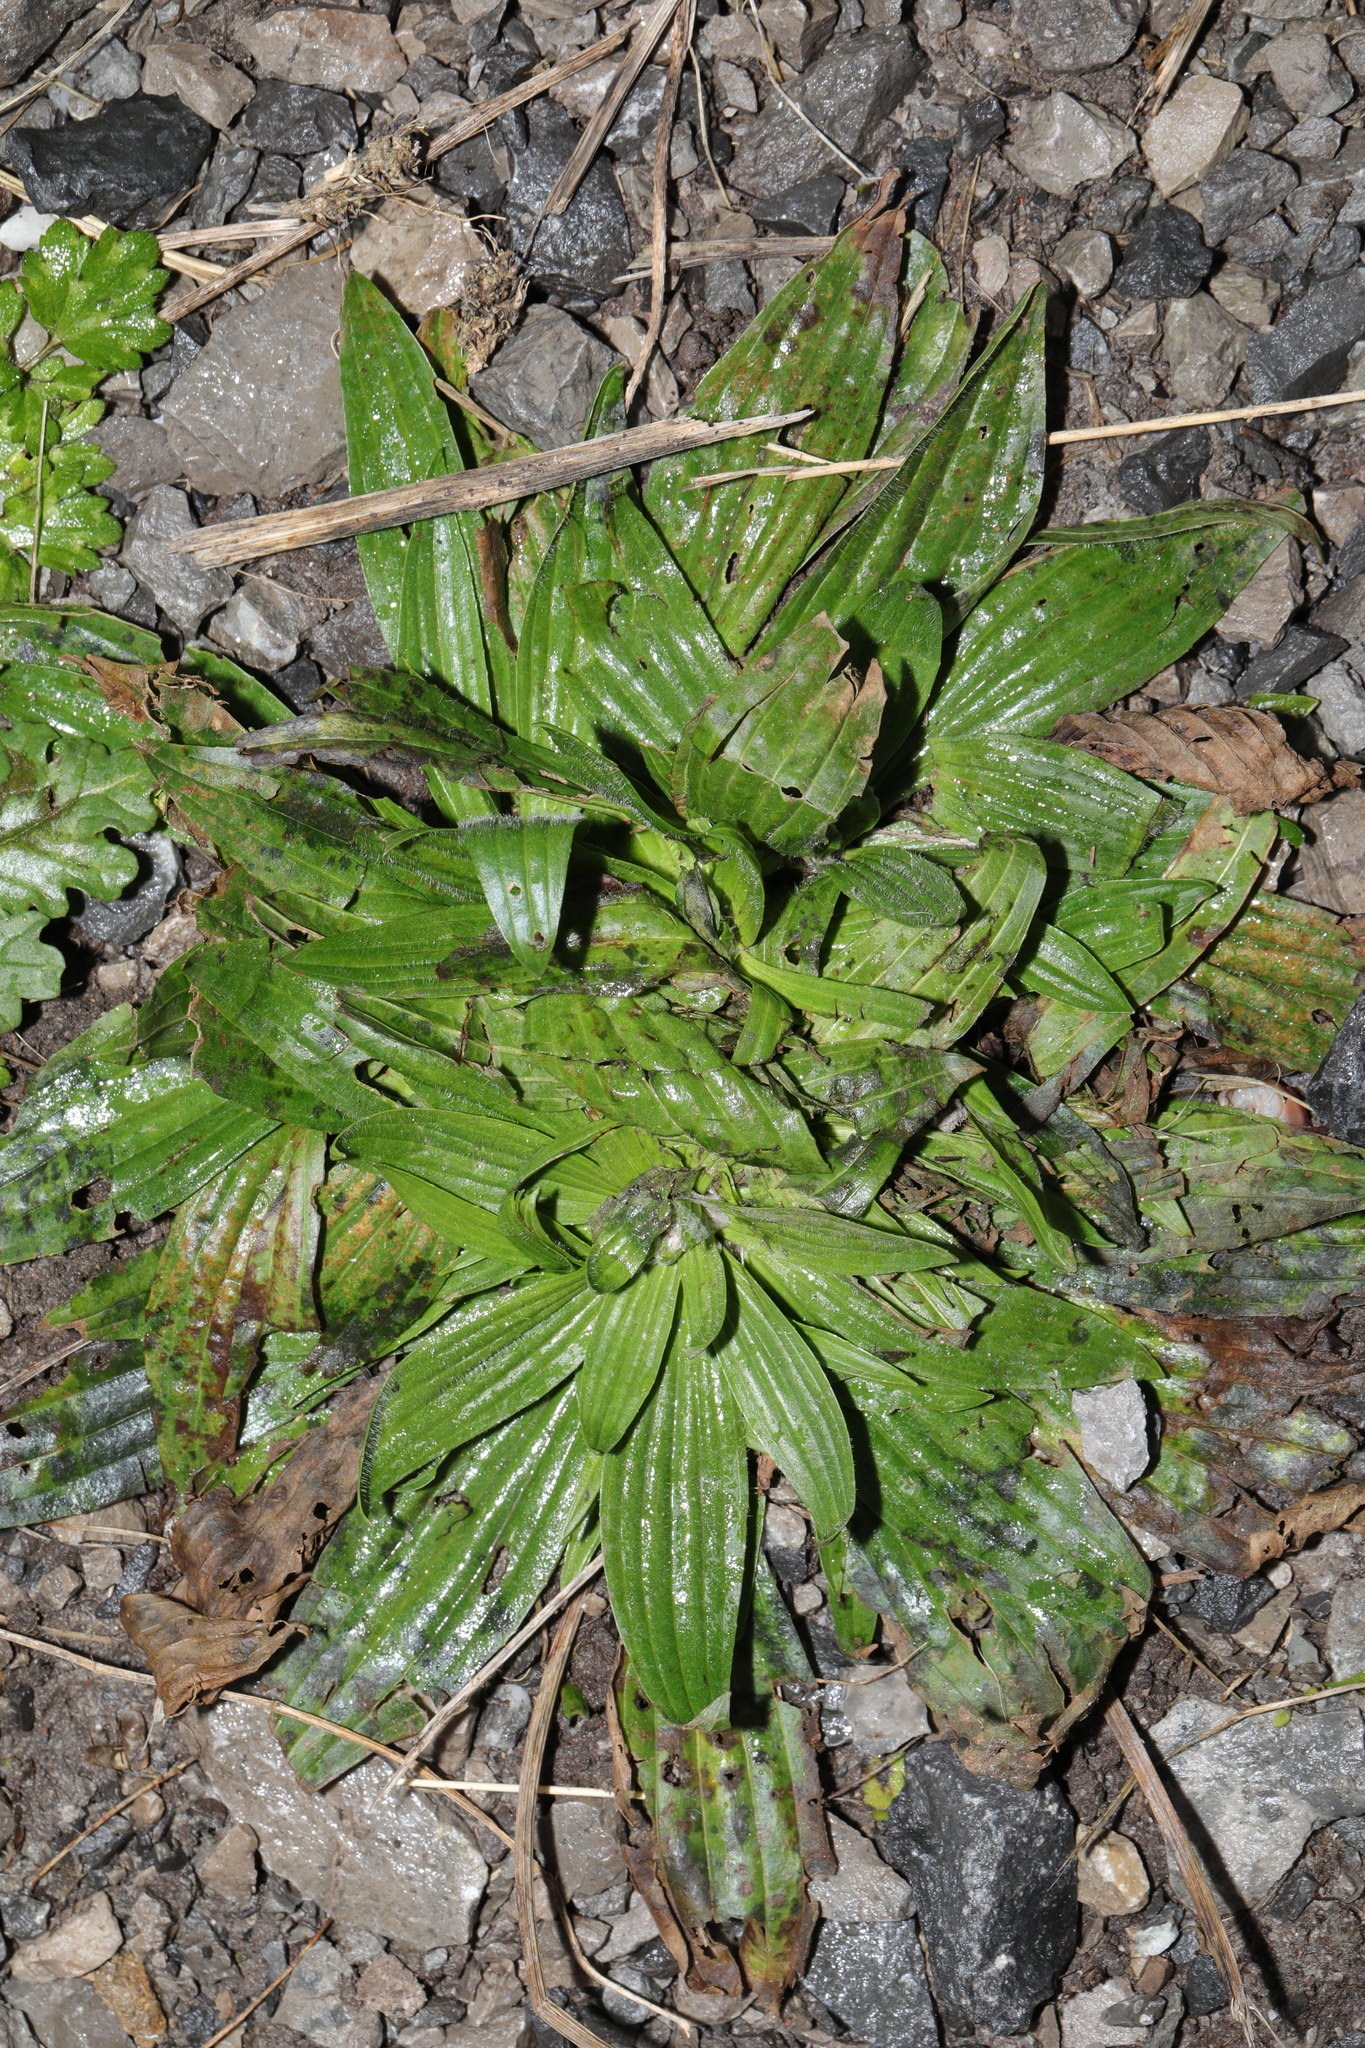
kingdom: Plantae
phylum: Tracheophyta
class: Magnoliopsida
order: Lamiales
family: Plantaginaceae
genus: Plantago
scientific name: Plantago lanceolata
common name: Ribwort plantain
